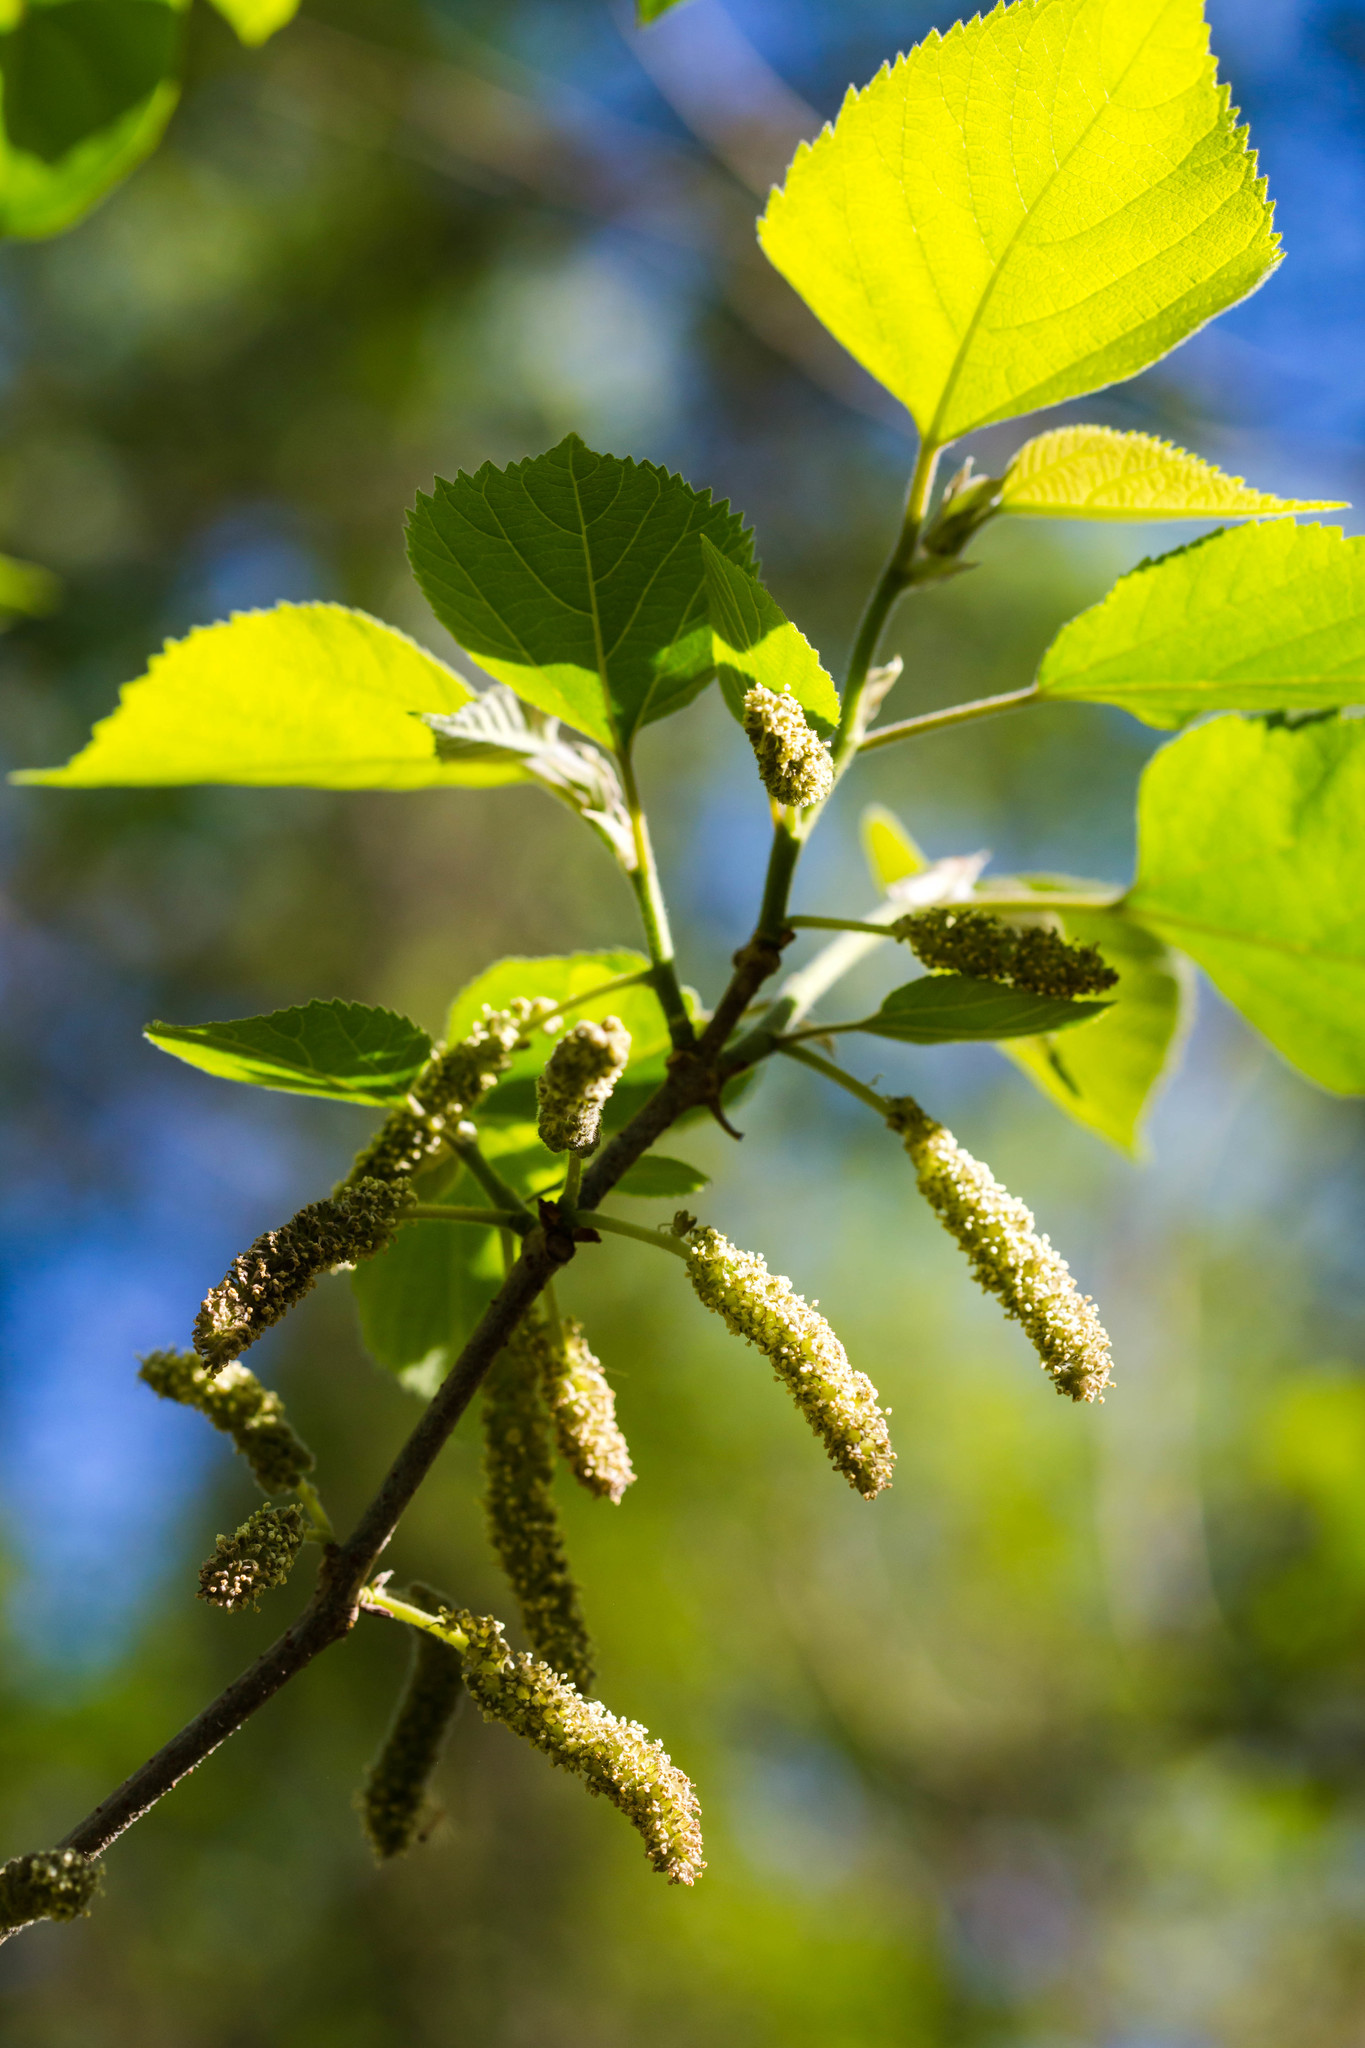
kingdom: Plantae
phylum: Tracheophyta
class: Magnoliopsida
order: Rosales
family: Moraceae
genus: Broussonetia
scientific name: Broussonetia papyrifera
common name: Paper mulberry
